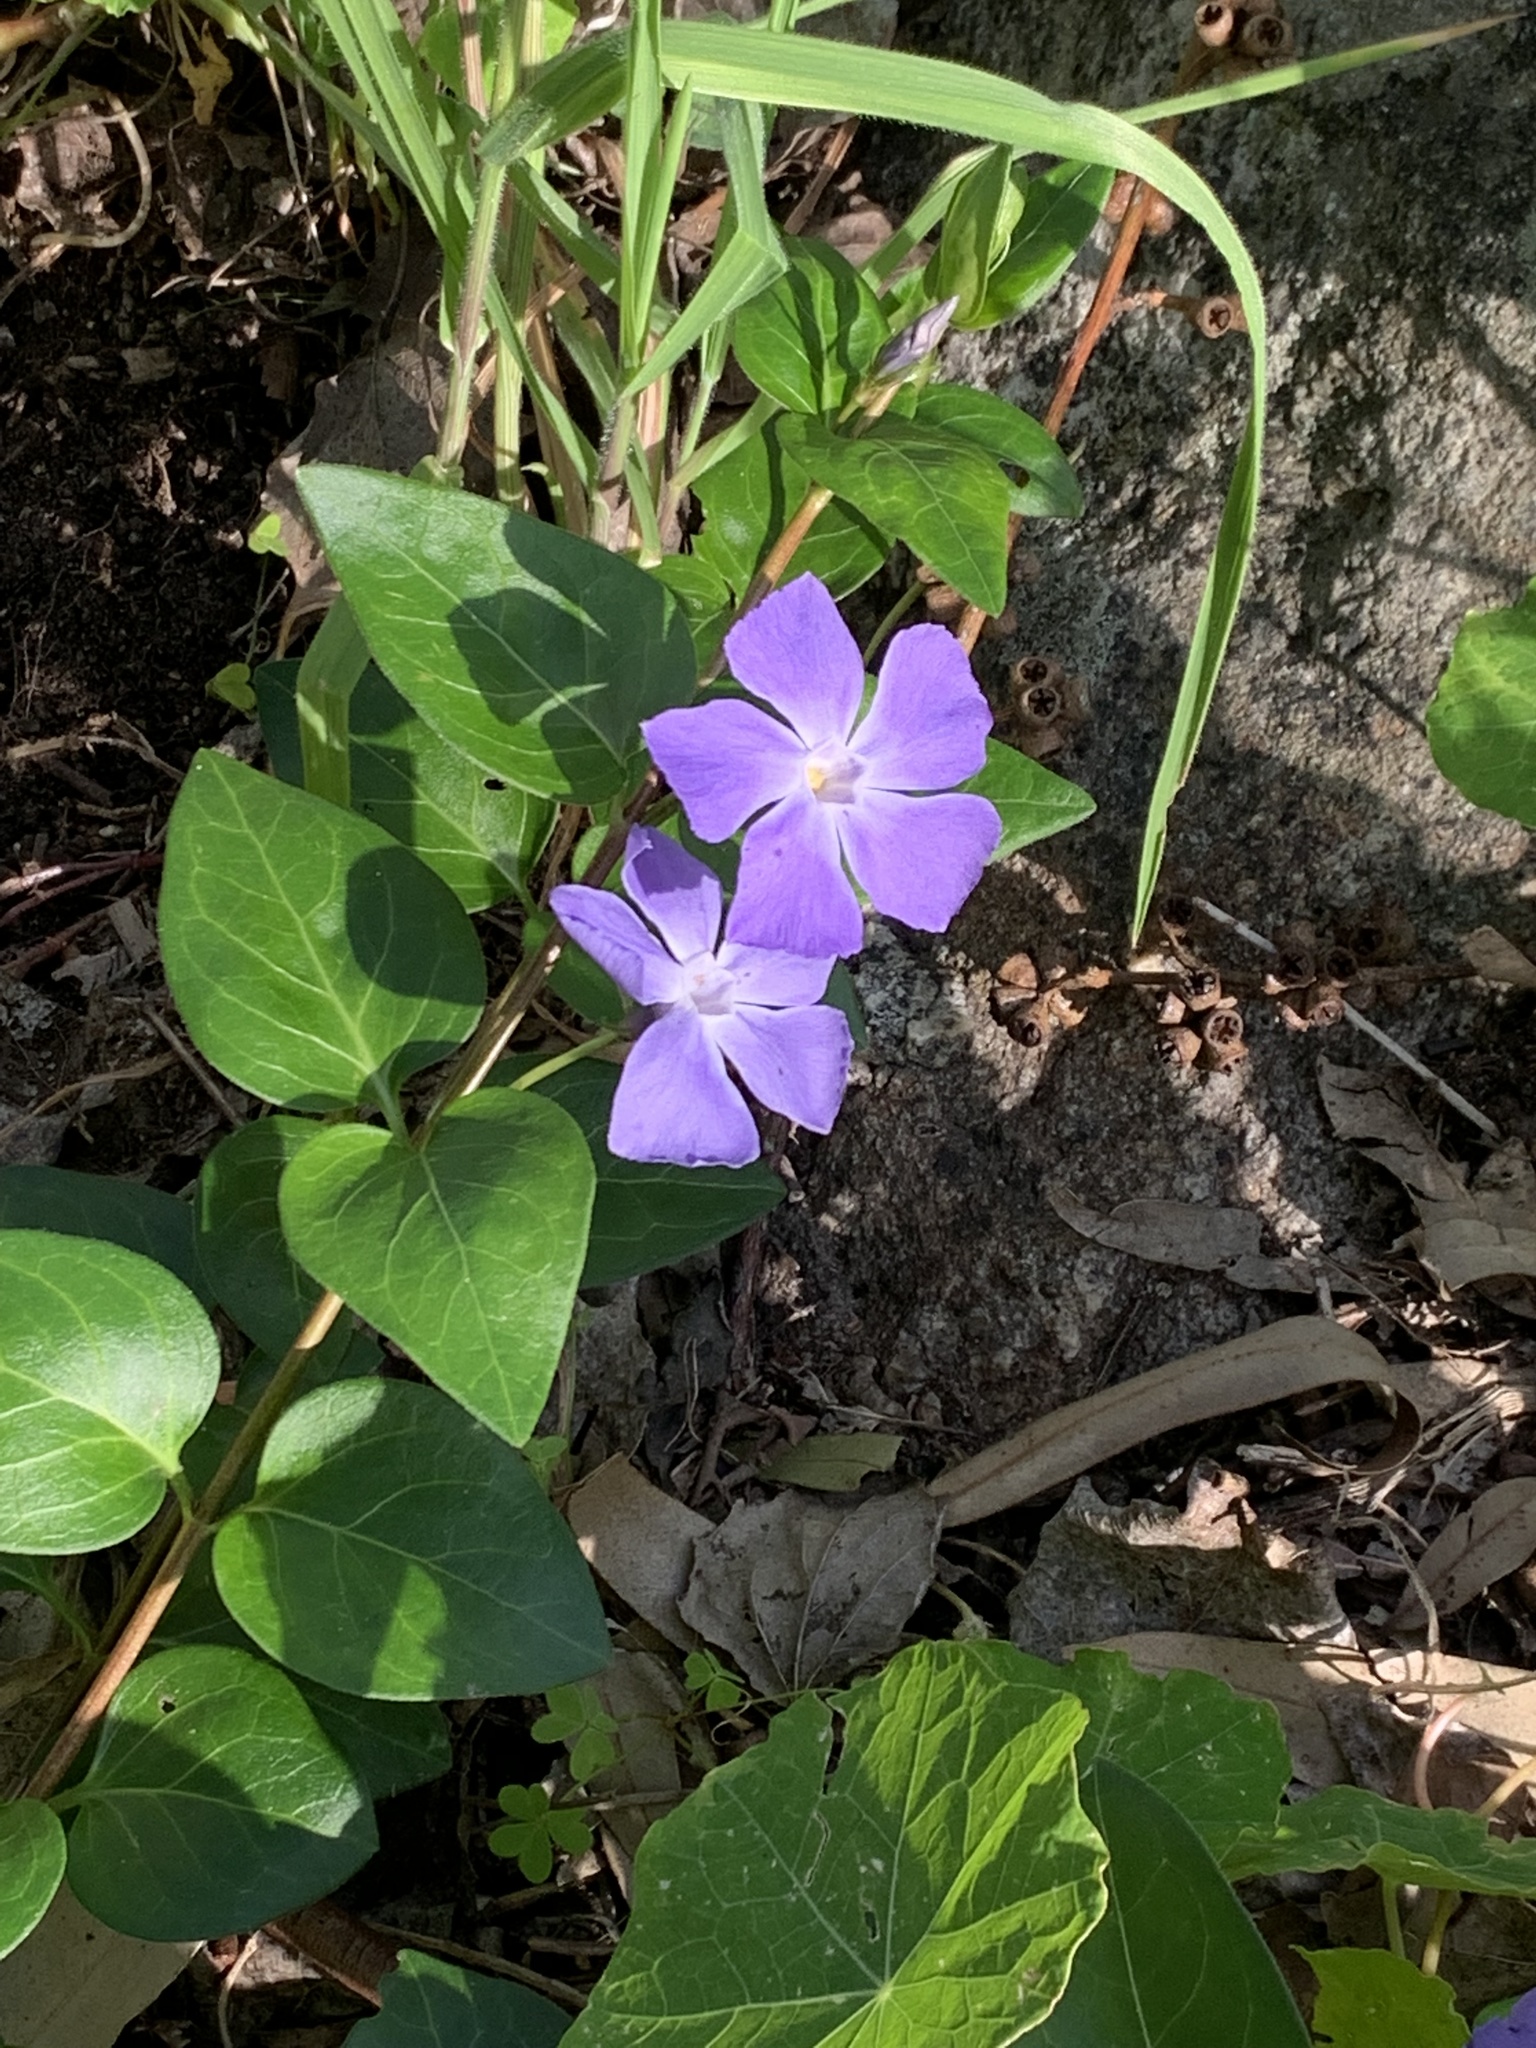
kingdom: Plantae
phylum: Tracheophyta
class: Magnoliopsida
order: Gentianales
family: Apocynaceae
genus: Vinca
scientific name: Vinca major
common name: Greater periwinkle
